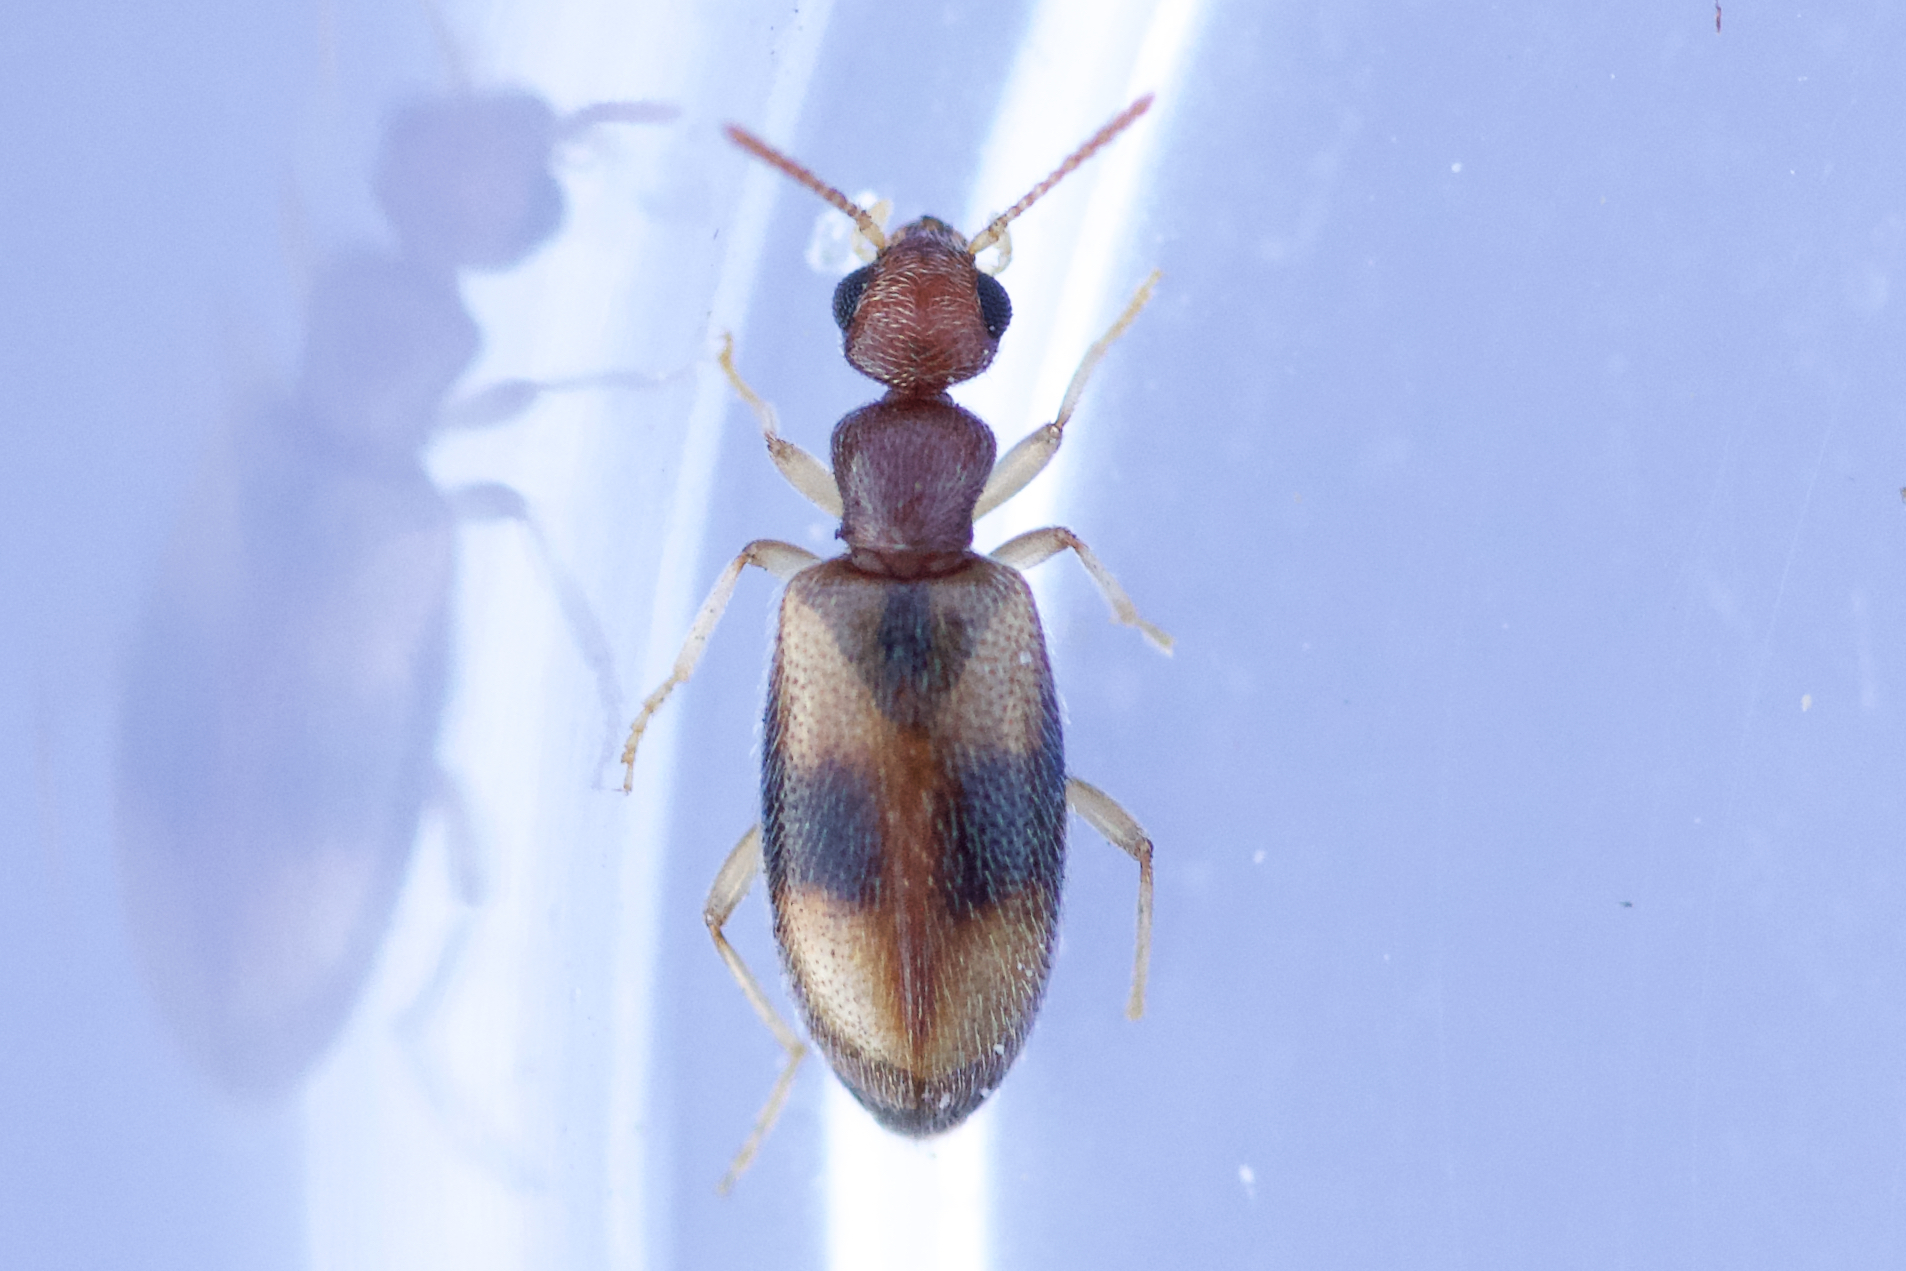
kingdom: Animalia
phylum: Arthropoda
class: Insecta
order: Coleoptera
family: Anthicidae
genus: Anthicus
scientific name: Anthicus ephippium
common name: Antlike flower beetle
